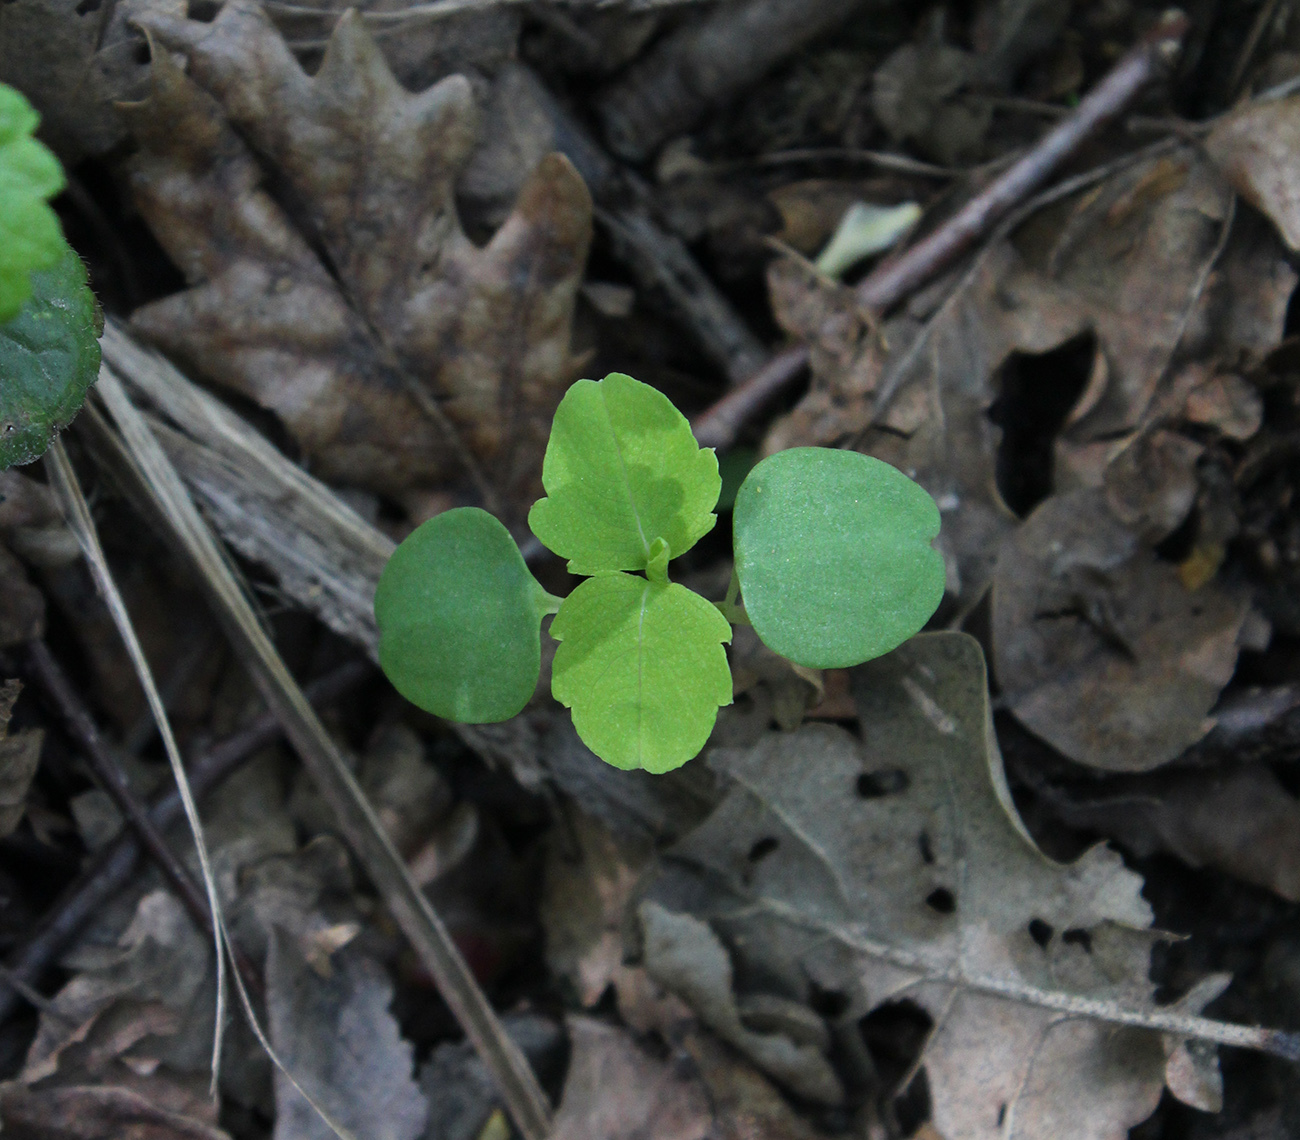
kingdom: Plantae
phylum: Tracheophyta
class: Magnoliopsida
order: Ericales
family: Balsaminaceae
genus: Impatiens
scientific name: Impatiens noli-tangere
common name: Touch-me-not balsam
